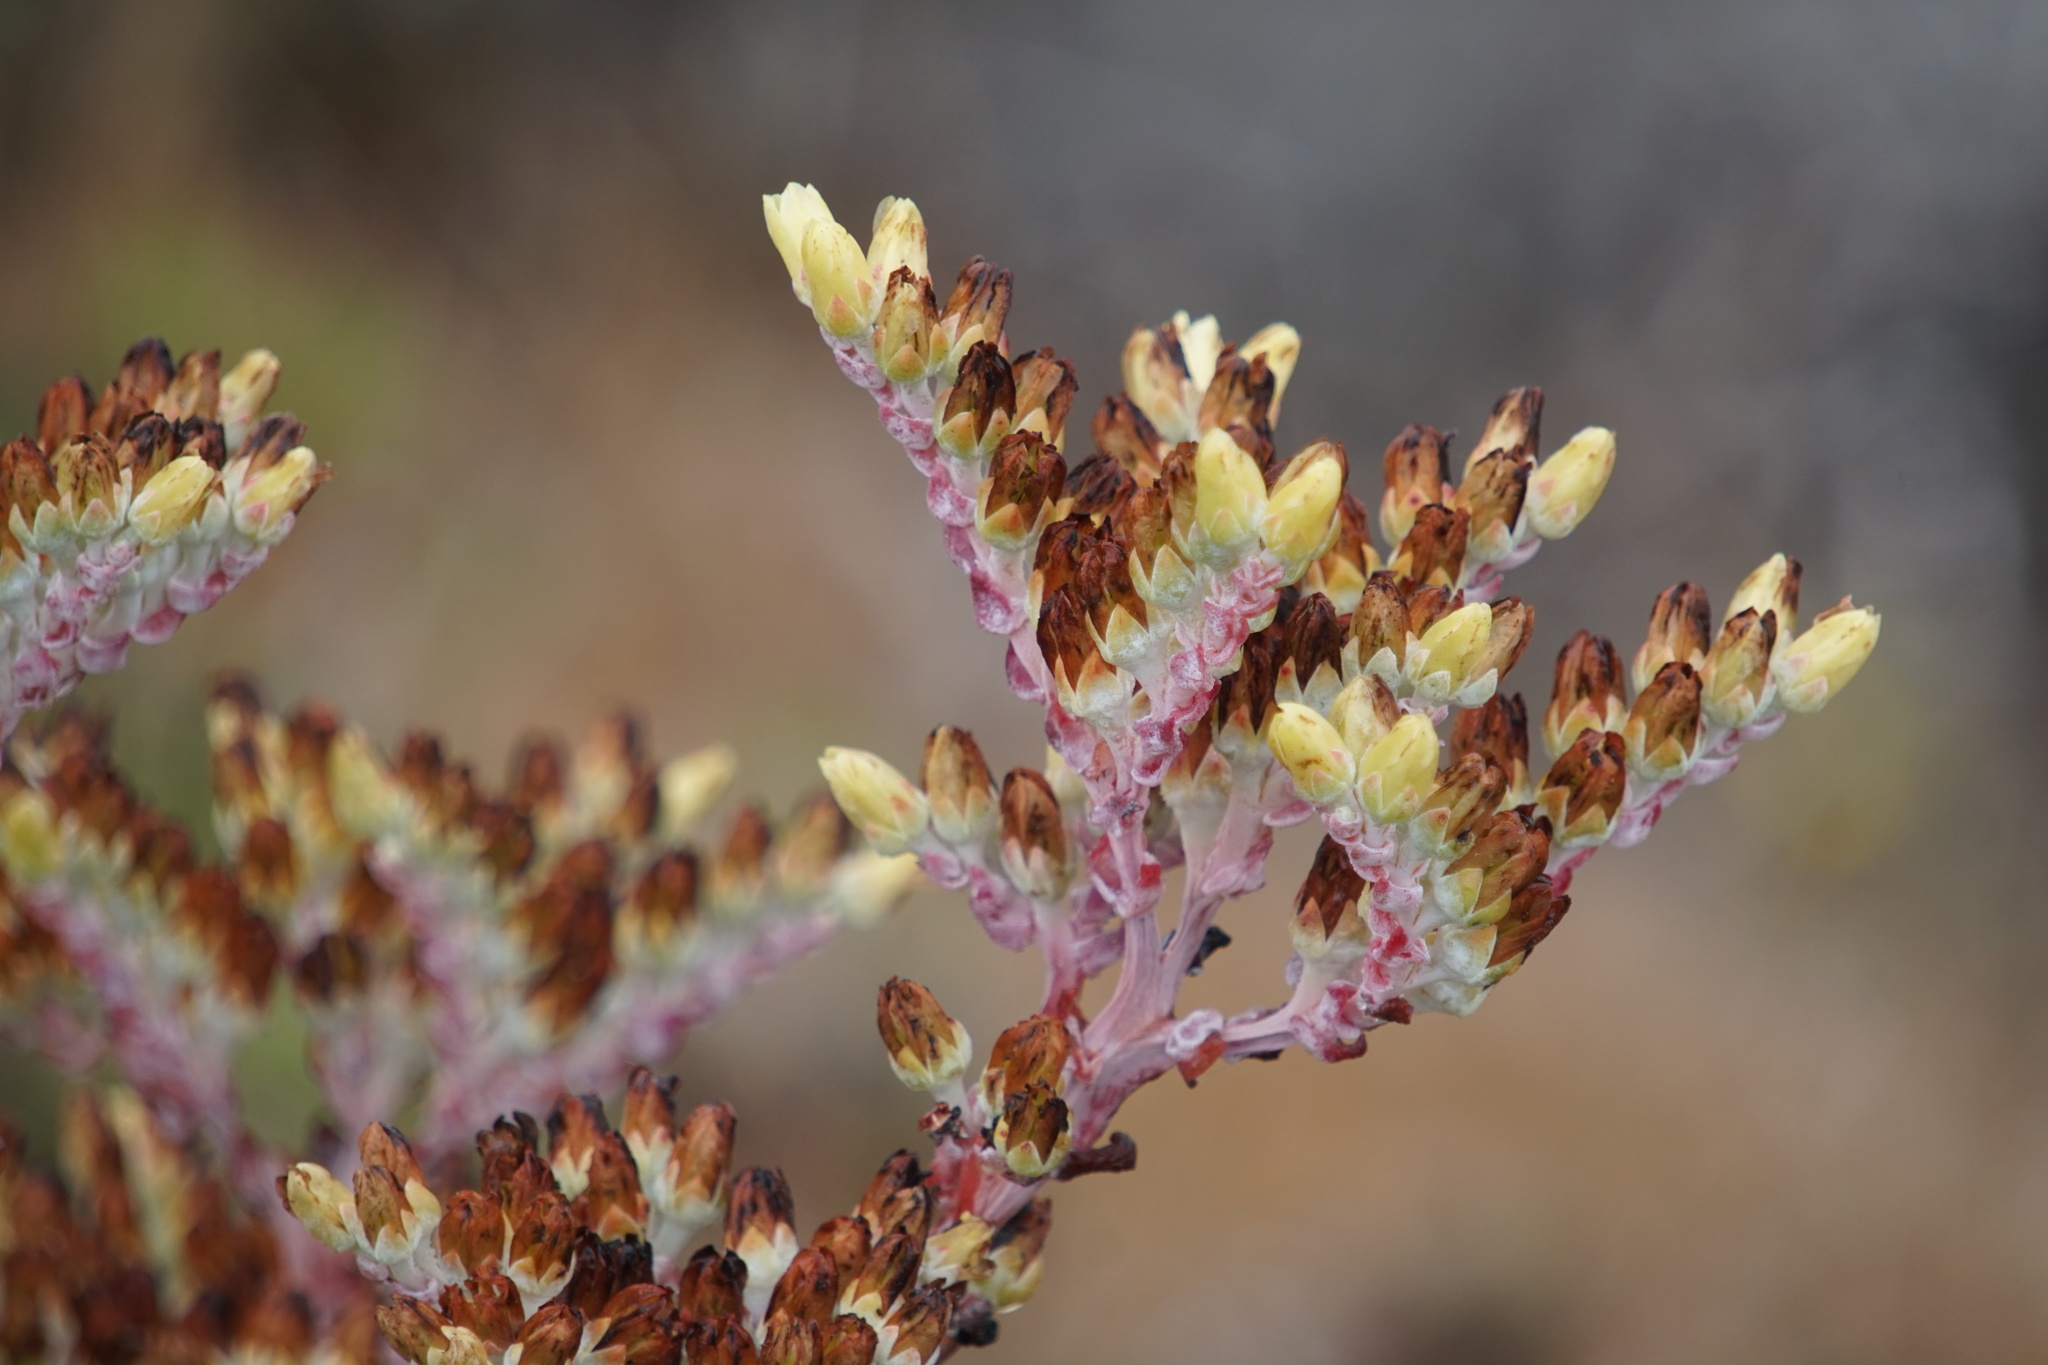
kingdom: Plantae
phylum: Tracheophyta
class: Magnoliopsida
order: Saxifragales
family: Crassulaceae
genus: Dudleya
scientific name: Dudleya farinosa
